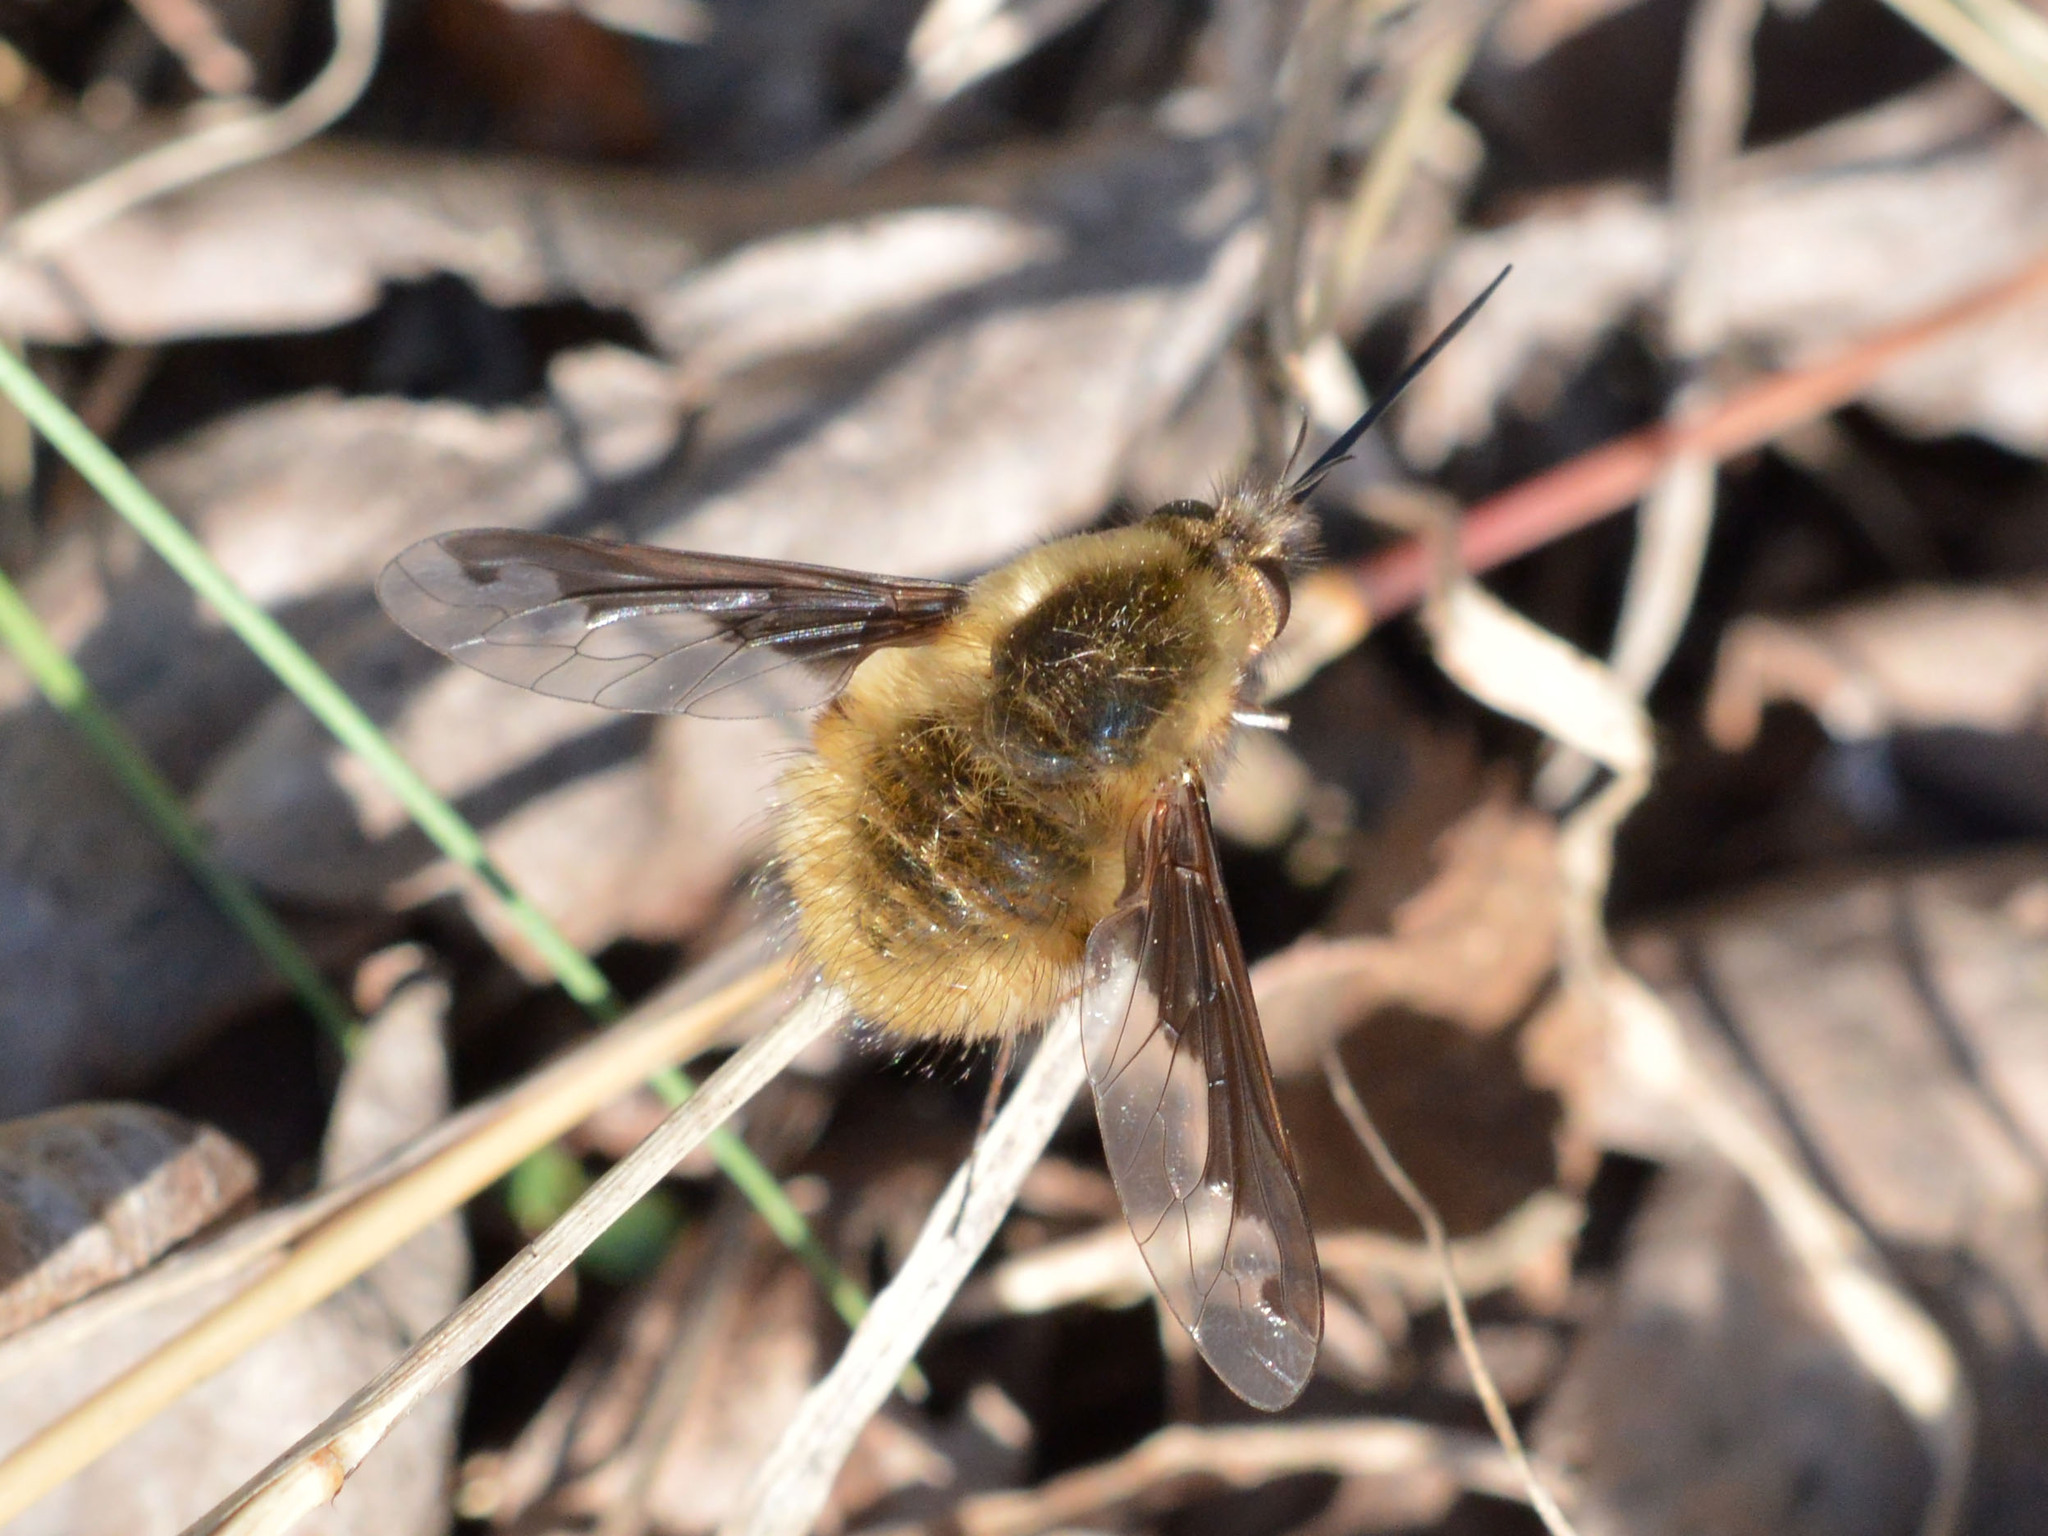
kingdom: Animalia
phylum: Arthropoda
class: Insecta
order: Diptera
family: Bombyliidae
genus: Bombylius
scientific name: Bombylius major
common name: Bee fly
